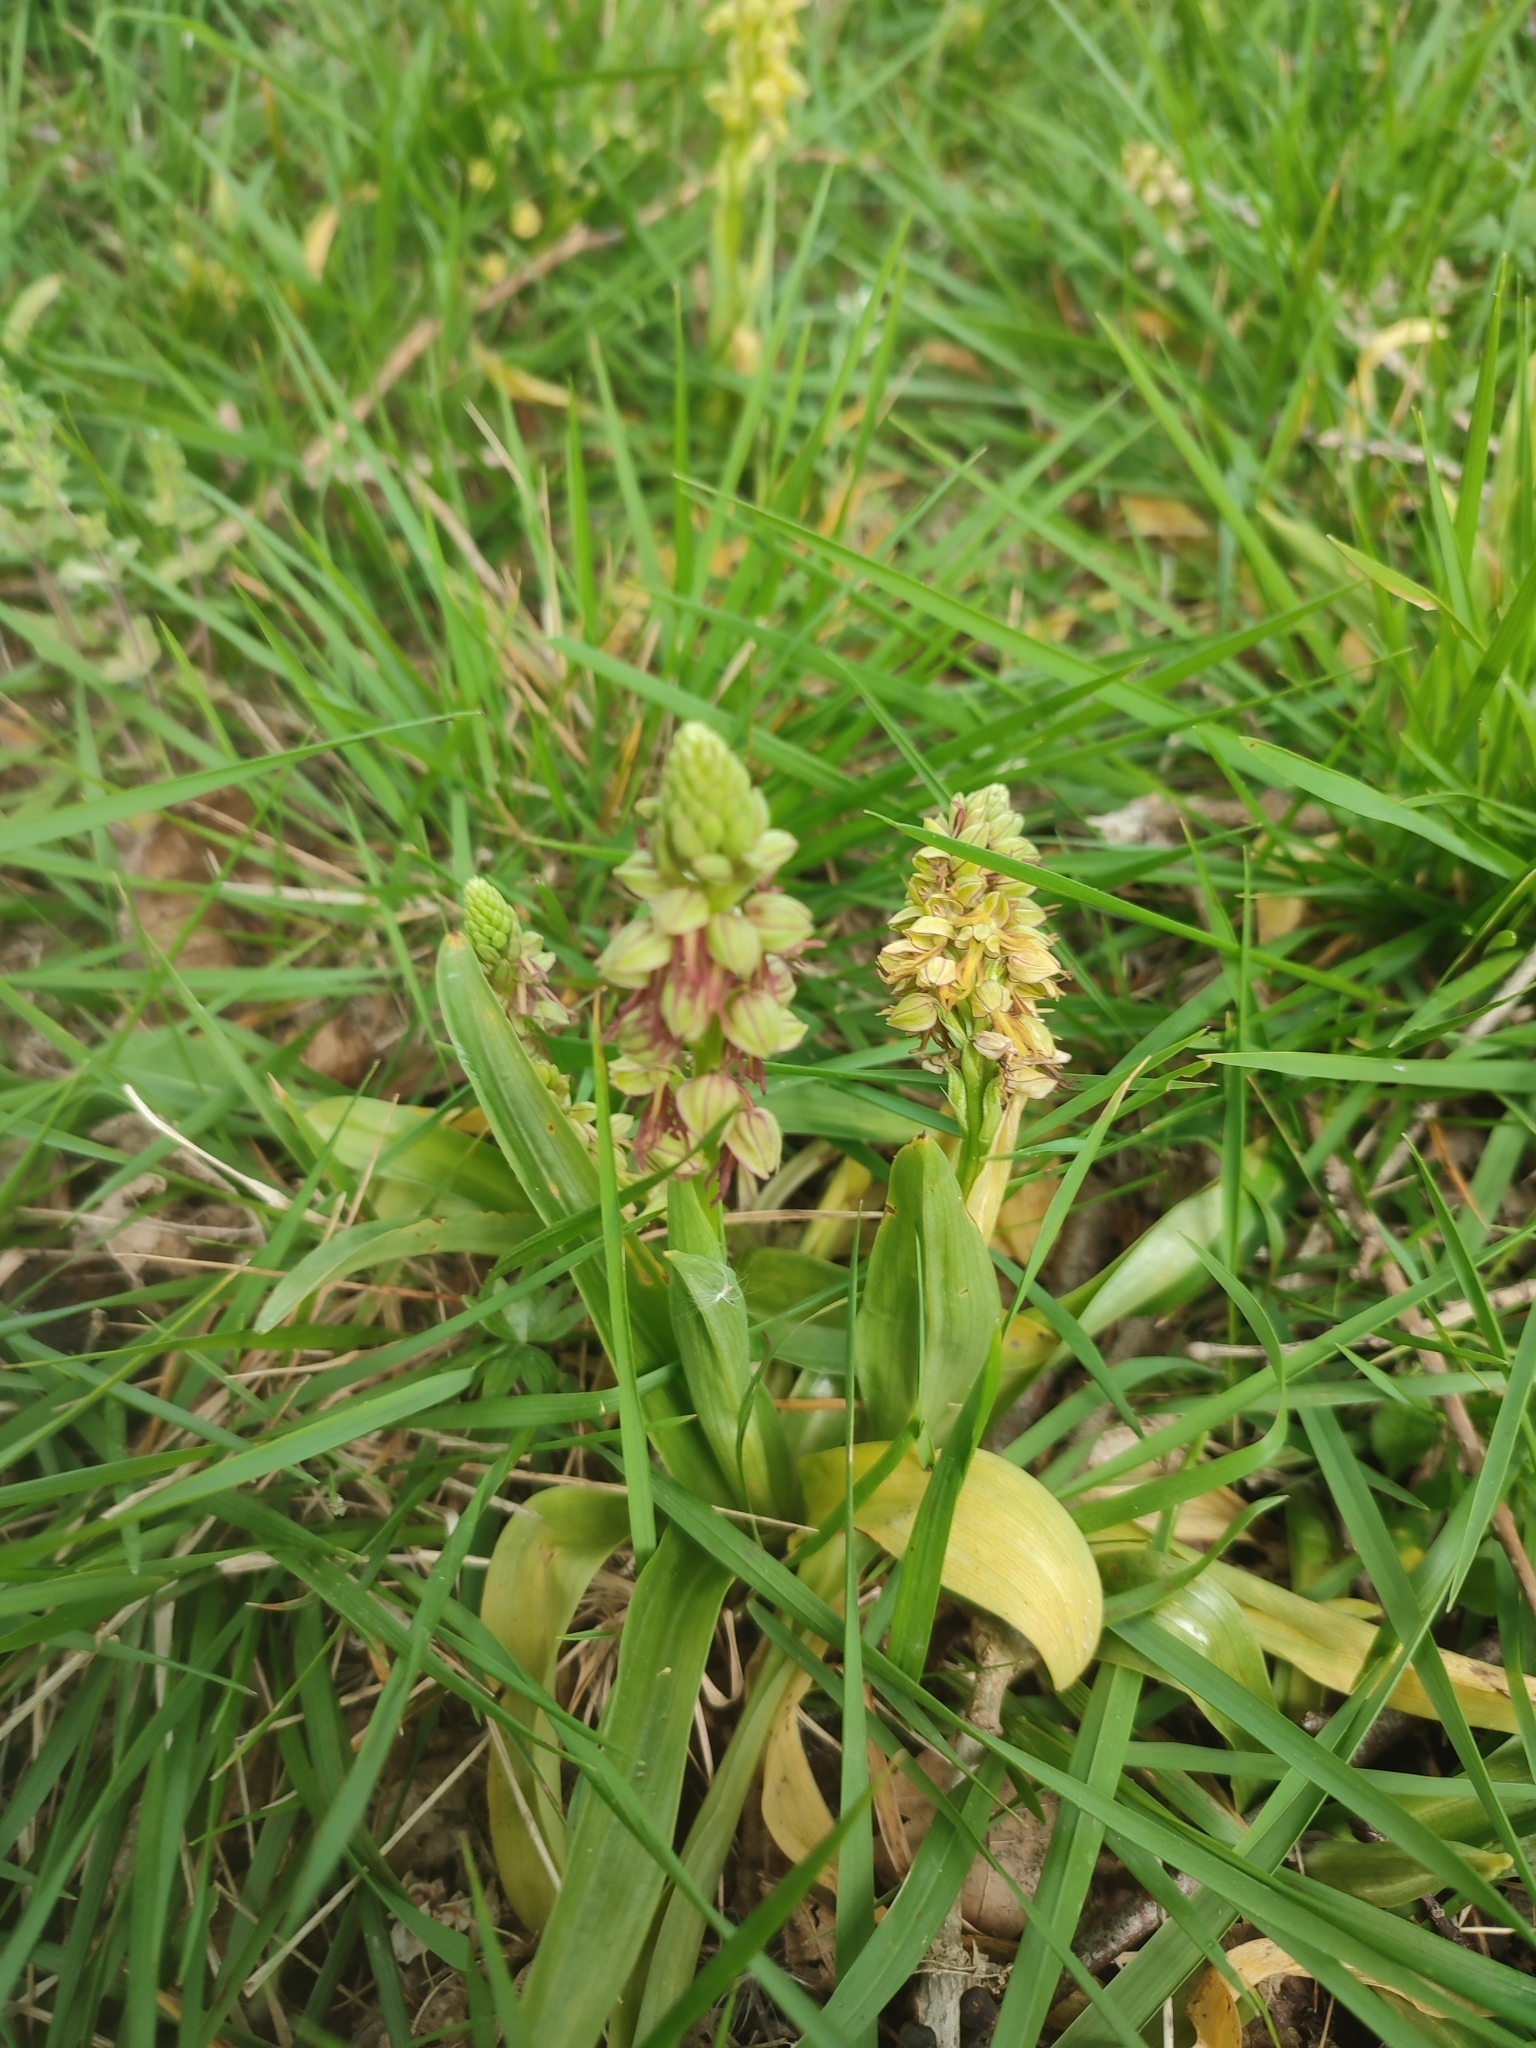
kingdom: Plantae
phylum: Tracheophyta
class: Liliopsida
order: Asparagales
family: Orchidaceae
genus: Orchis
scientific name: Orchis anthropophora
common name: Man orchid
